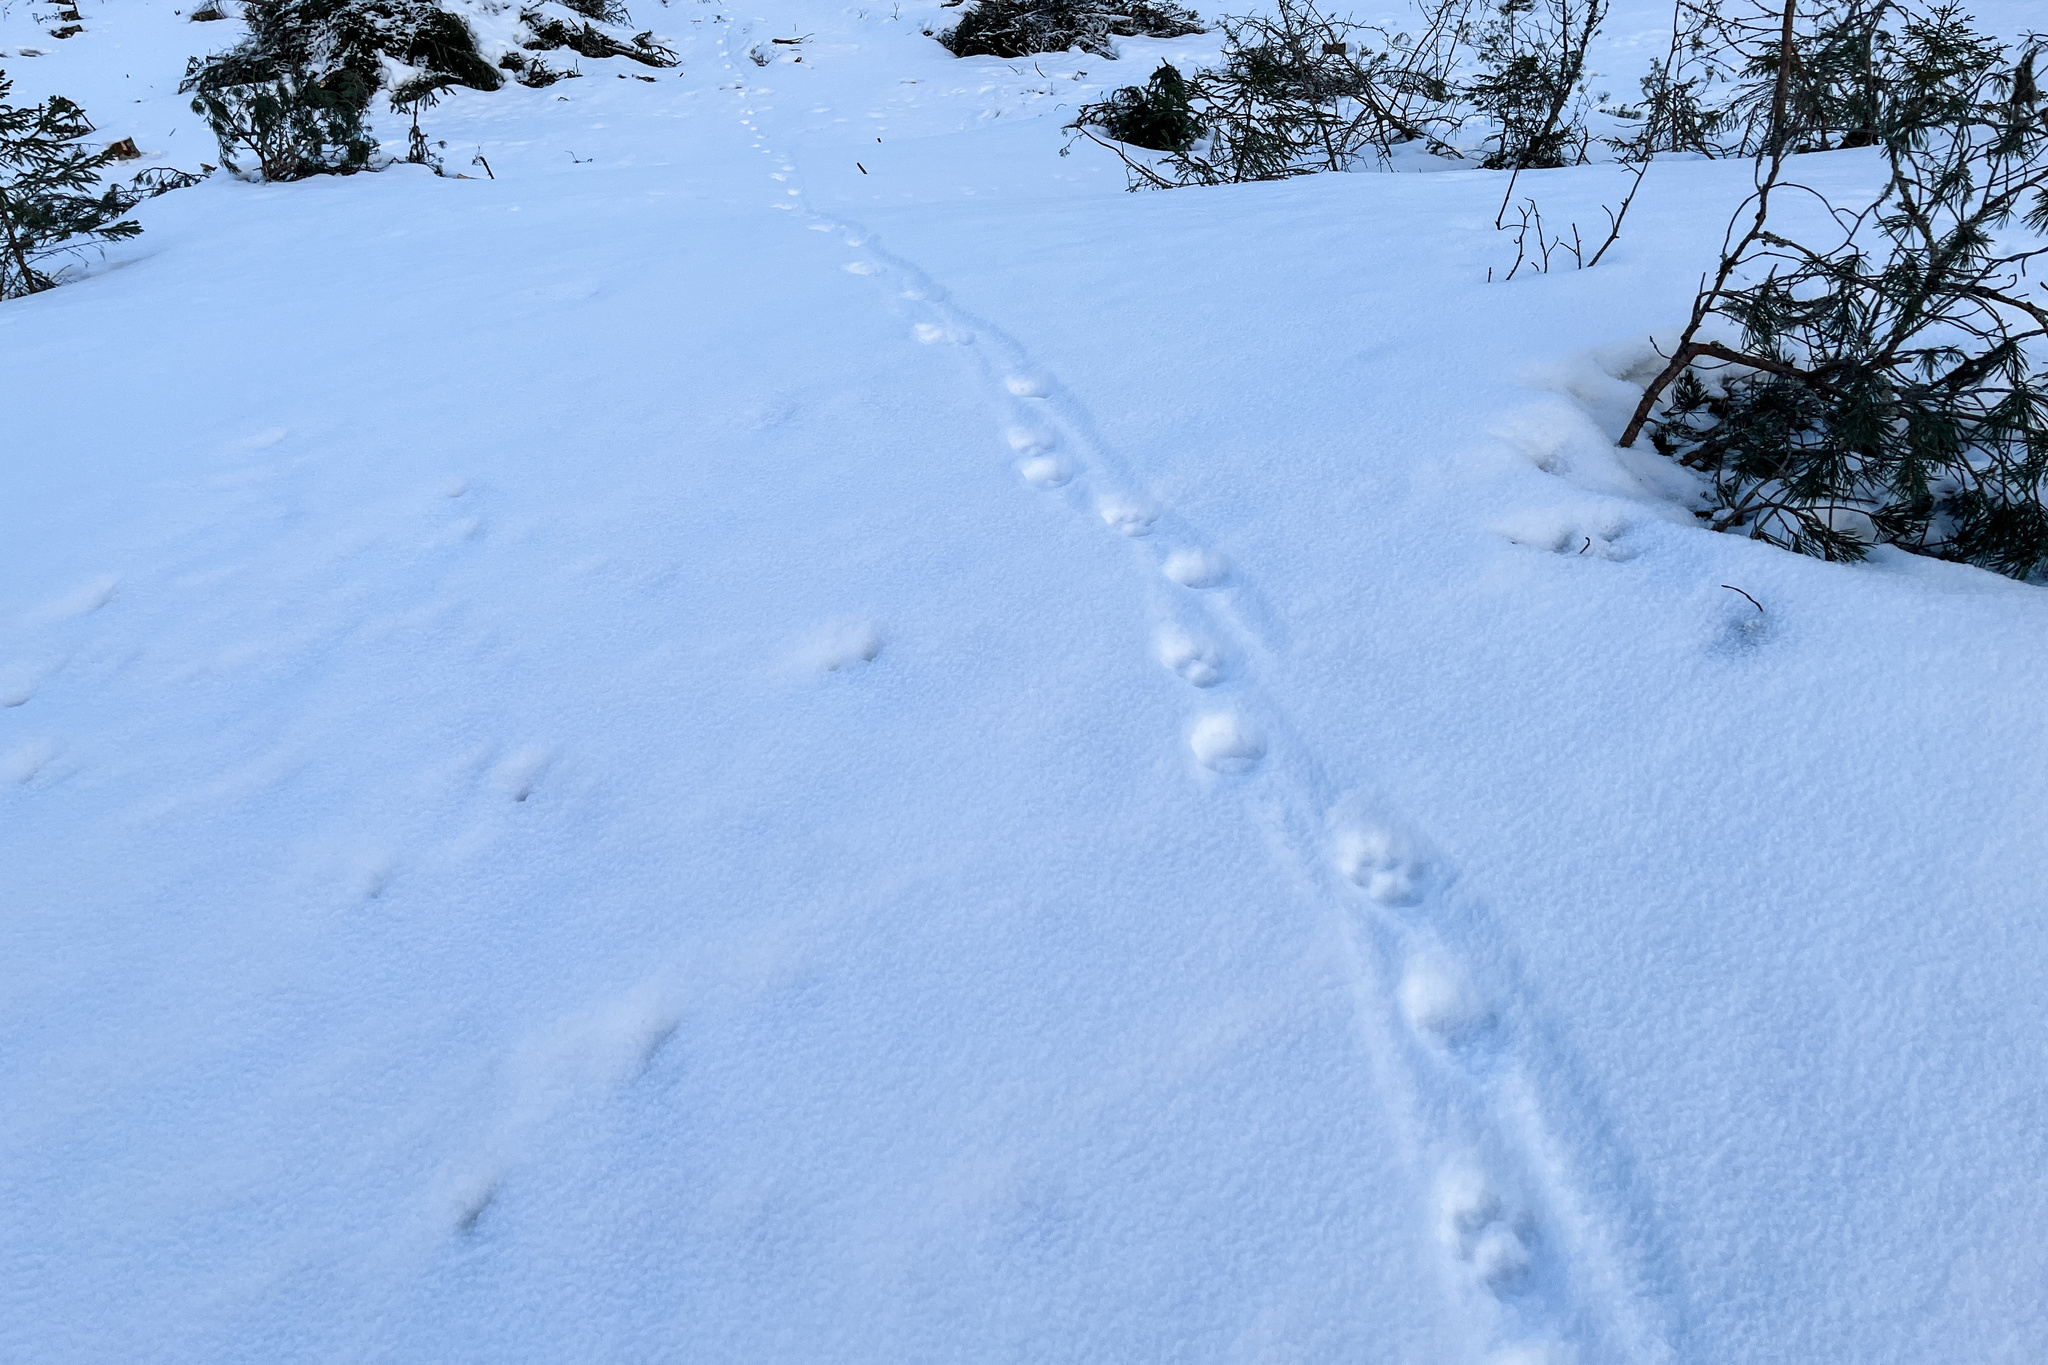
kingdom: Animalia
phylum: Chordata
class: Mammalia
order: Carnivora
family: Felidae
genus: Lynx
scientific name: Lynx lynx
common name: Eurasian lynx
